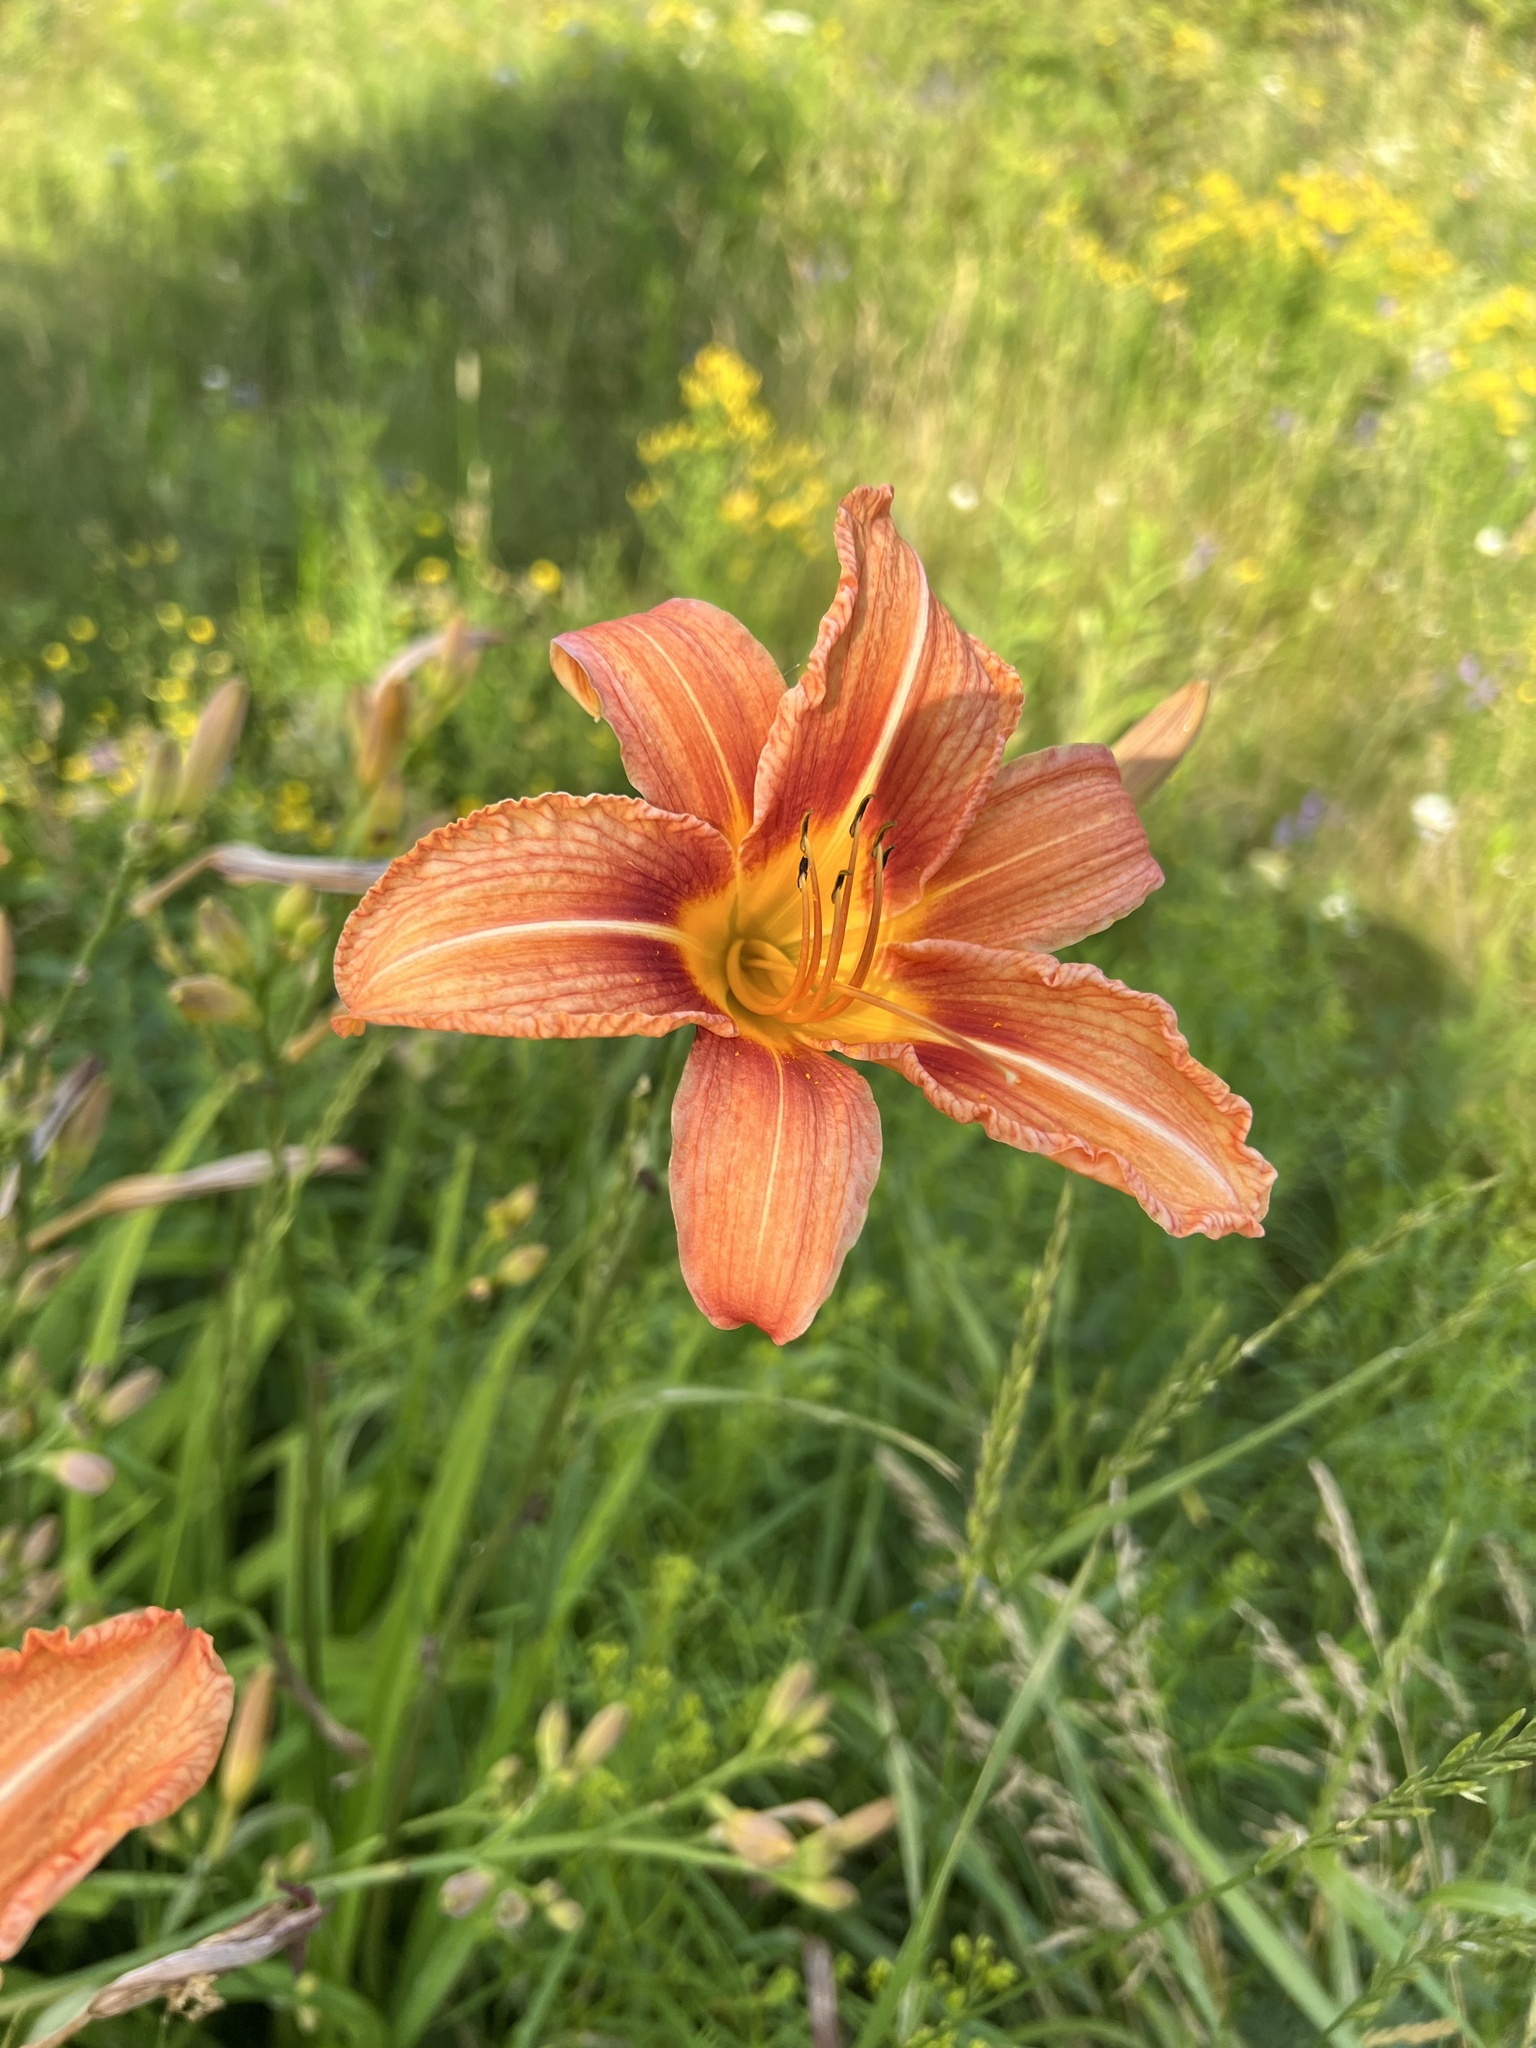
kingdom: Plantae
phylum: Tracheophyta
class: Liliopsida
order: Asparagales
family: Asphodelaceae
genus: Hemerocallis
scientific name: Hemerocallis fulva
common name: Orange day-lily
